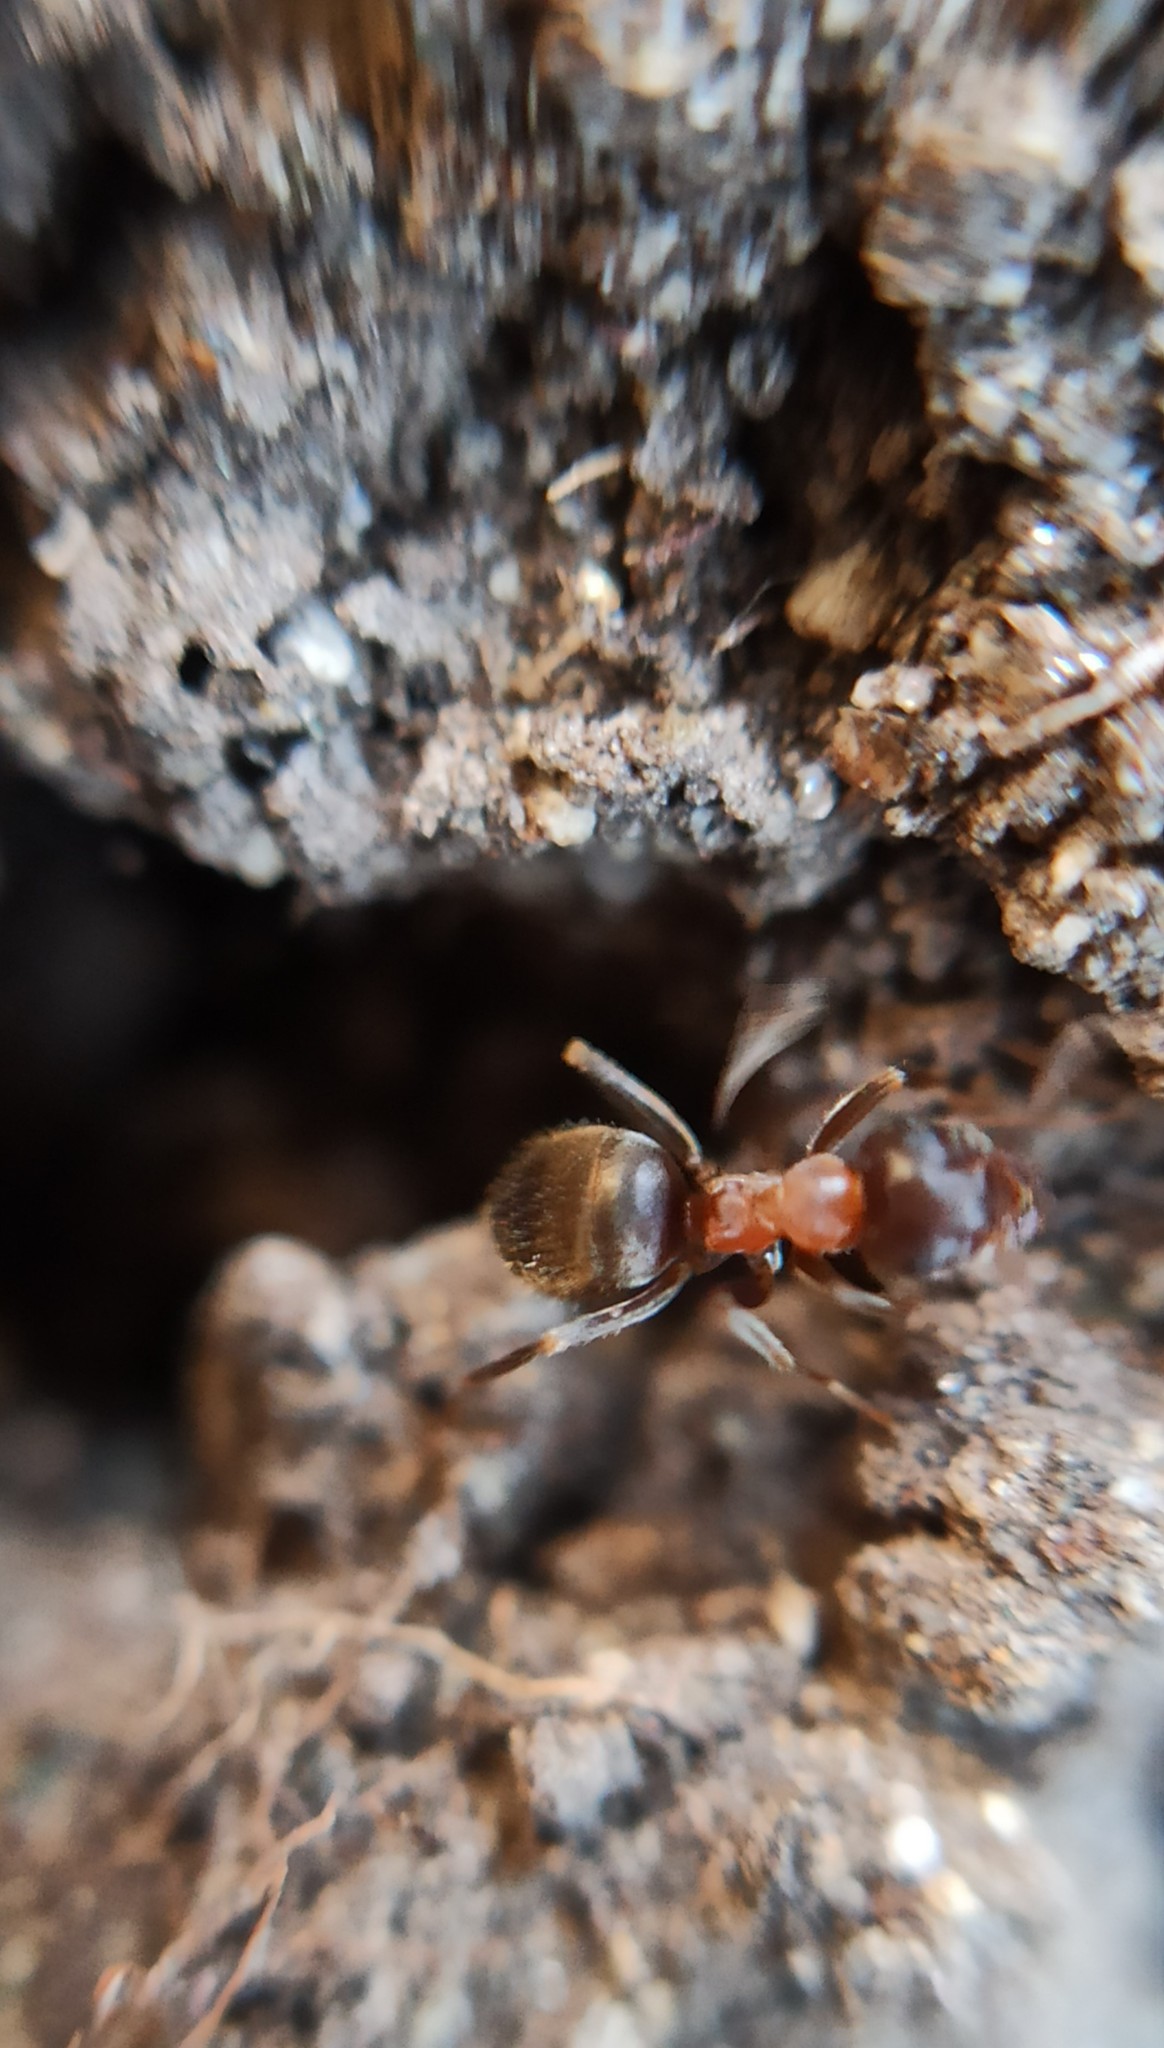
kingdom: Animalia
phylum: Arthropoda
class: Insecta
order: Hymenoptera
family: Formicidae
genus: Lasius
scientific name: Lasius emarginatus
